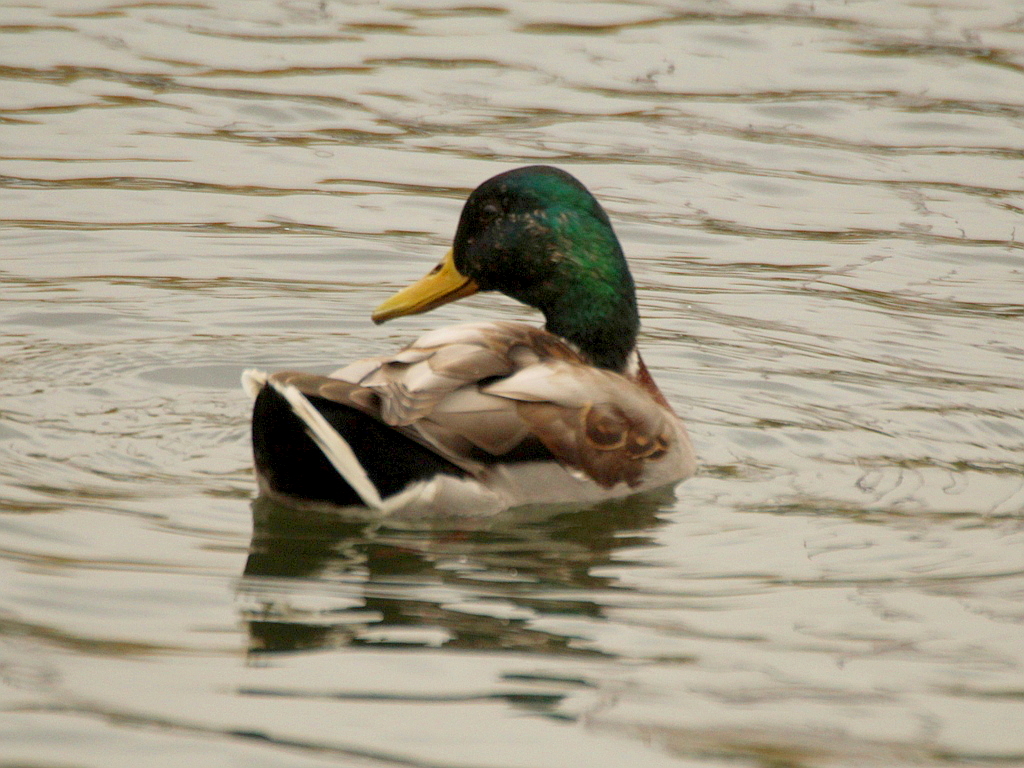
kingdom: Animalia
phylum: Chordata
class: Aves
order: Anseriformes
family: Anatidae
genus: Anas
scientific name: Anas platyrhynchos
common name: Mallard
